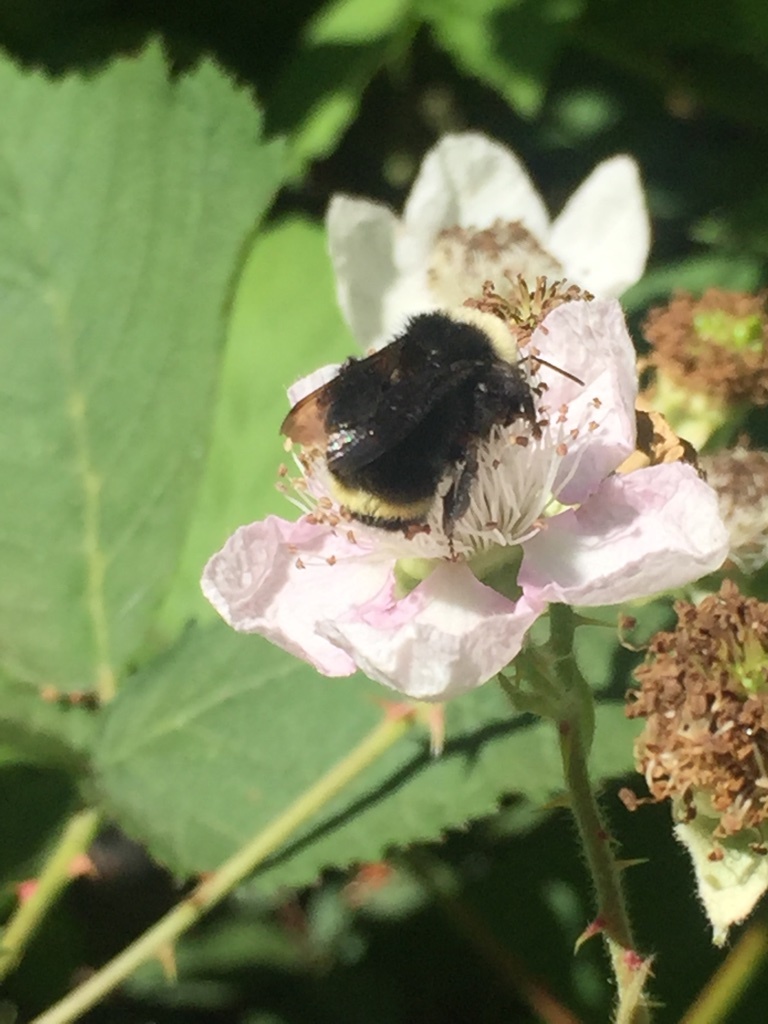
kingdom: Animalia
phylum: Arthropoda
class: Insecta
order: Hymenoptera
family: Apidae
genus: Bombus
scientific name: Bombus vosnesenskii
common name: Vosnesensky bumble bee
